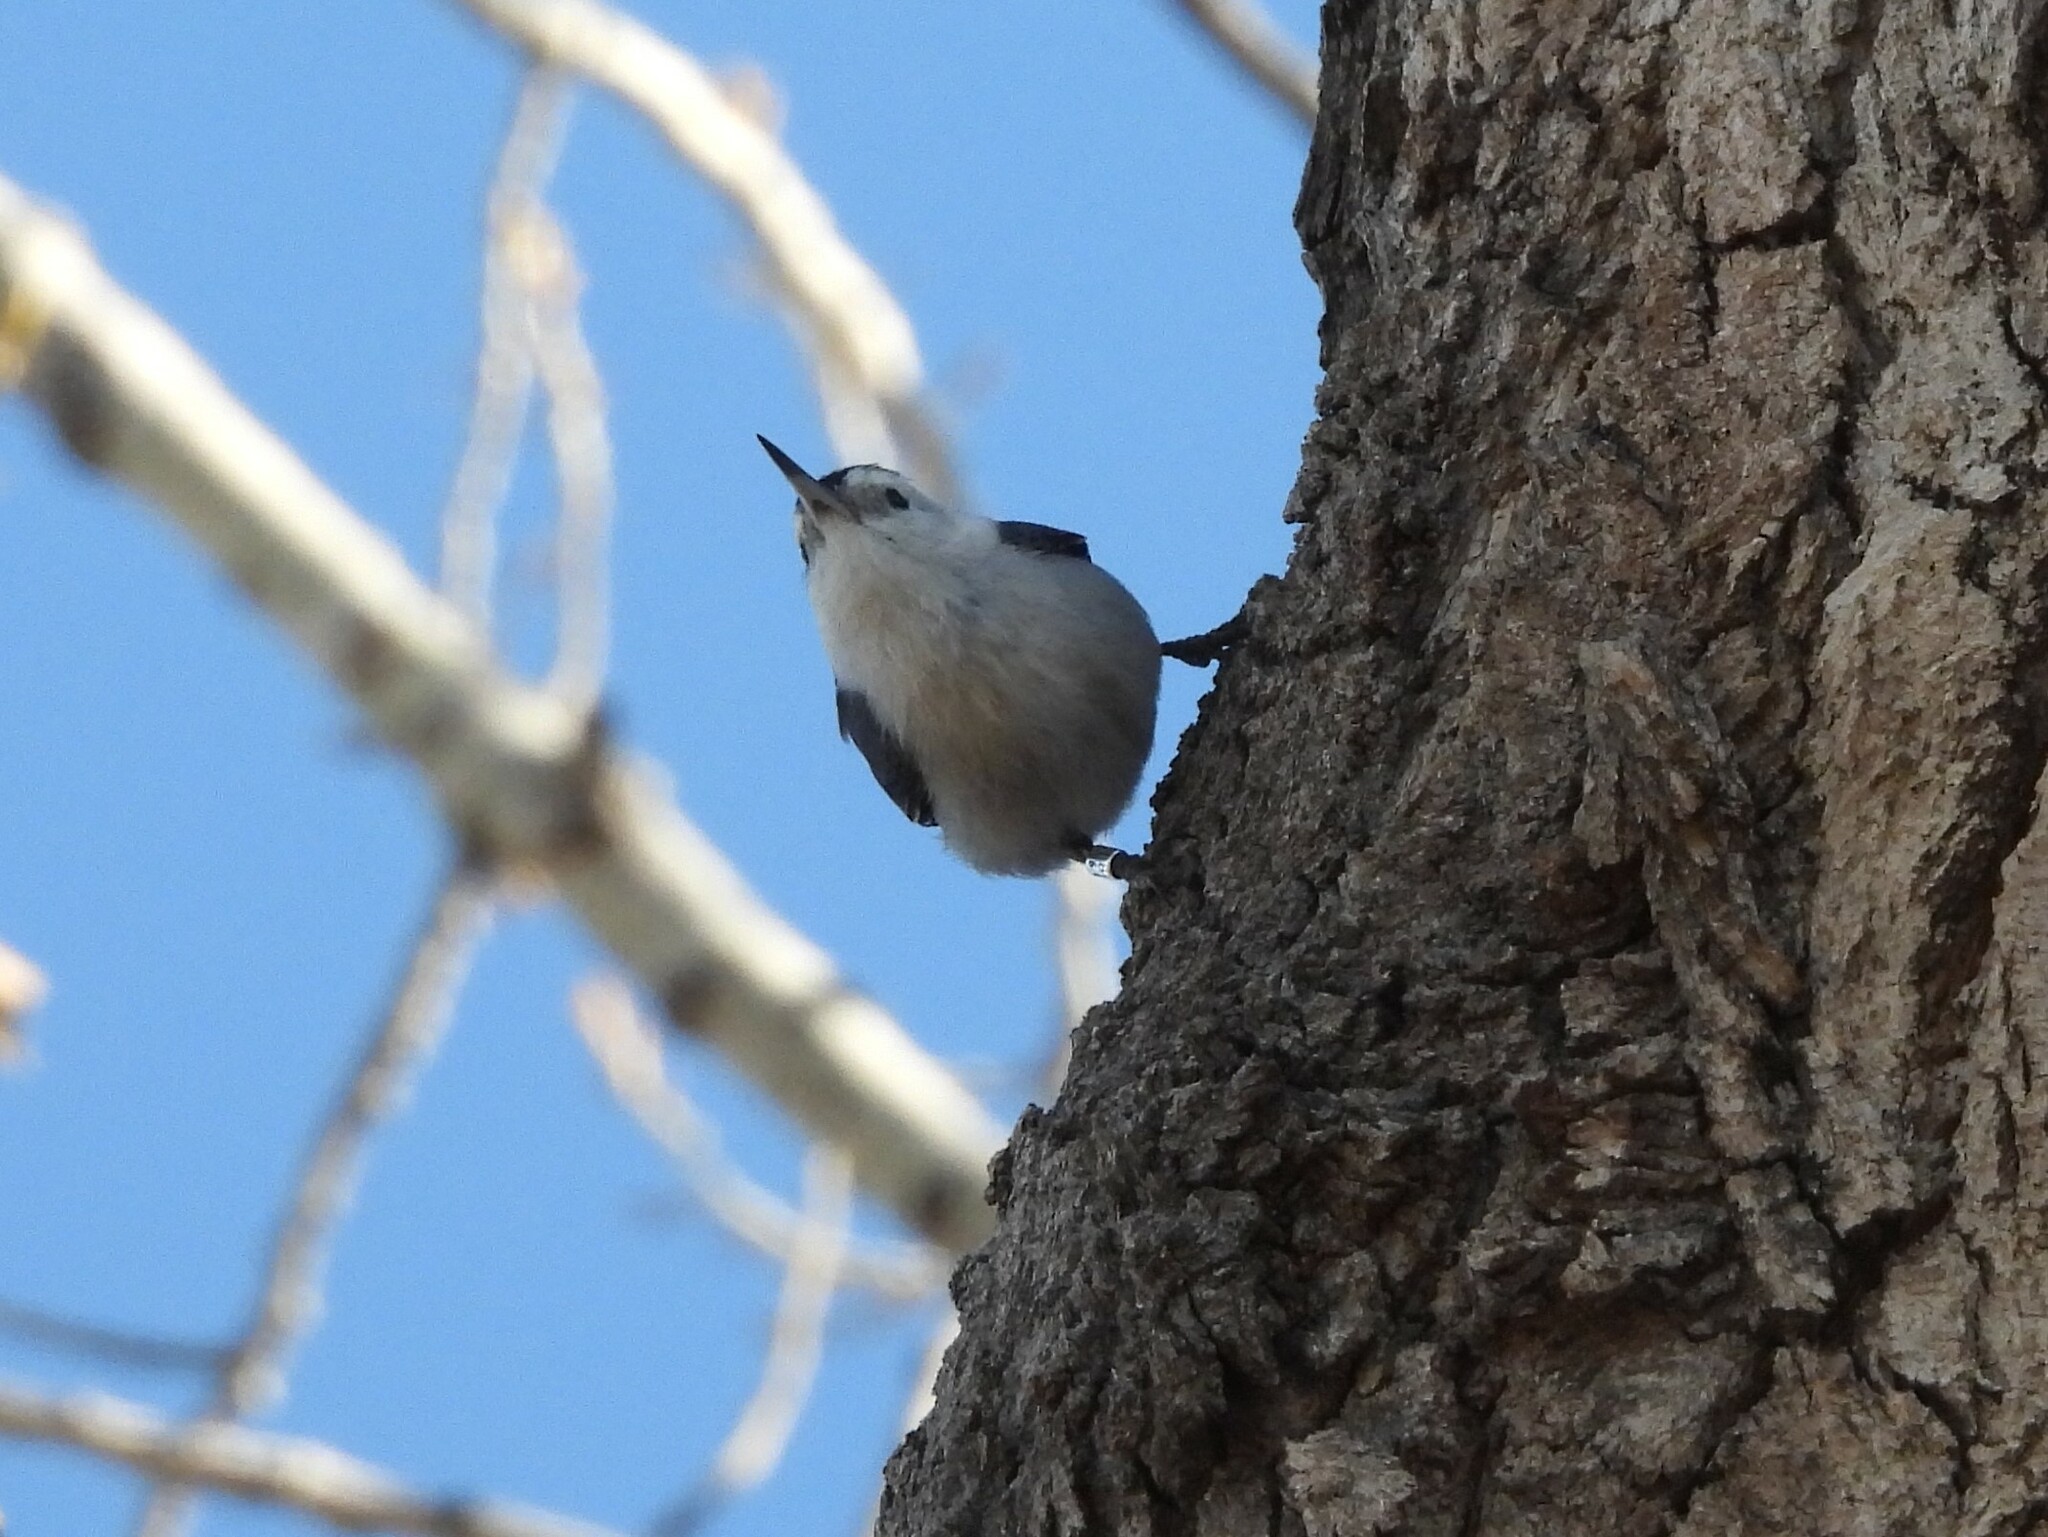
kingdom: Animalia
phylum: Chordata
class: Aves
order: Passeriformes
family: Sittidae
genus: Sitta
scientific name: Sitta carolinensis
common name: White-breasted nuthatch
